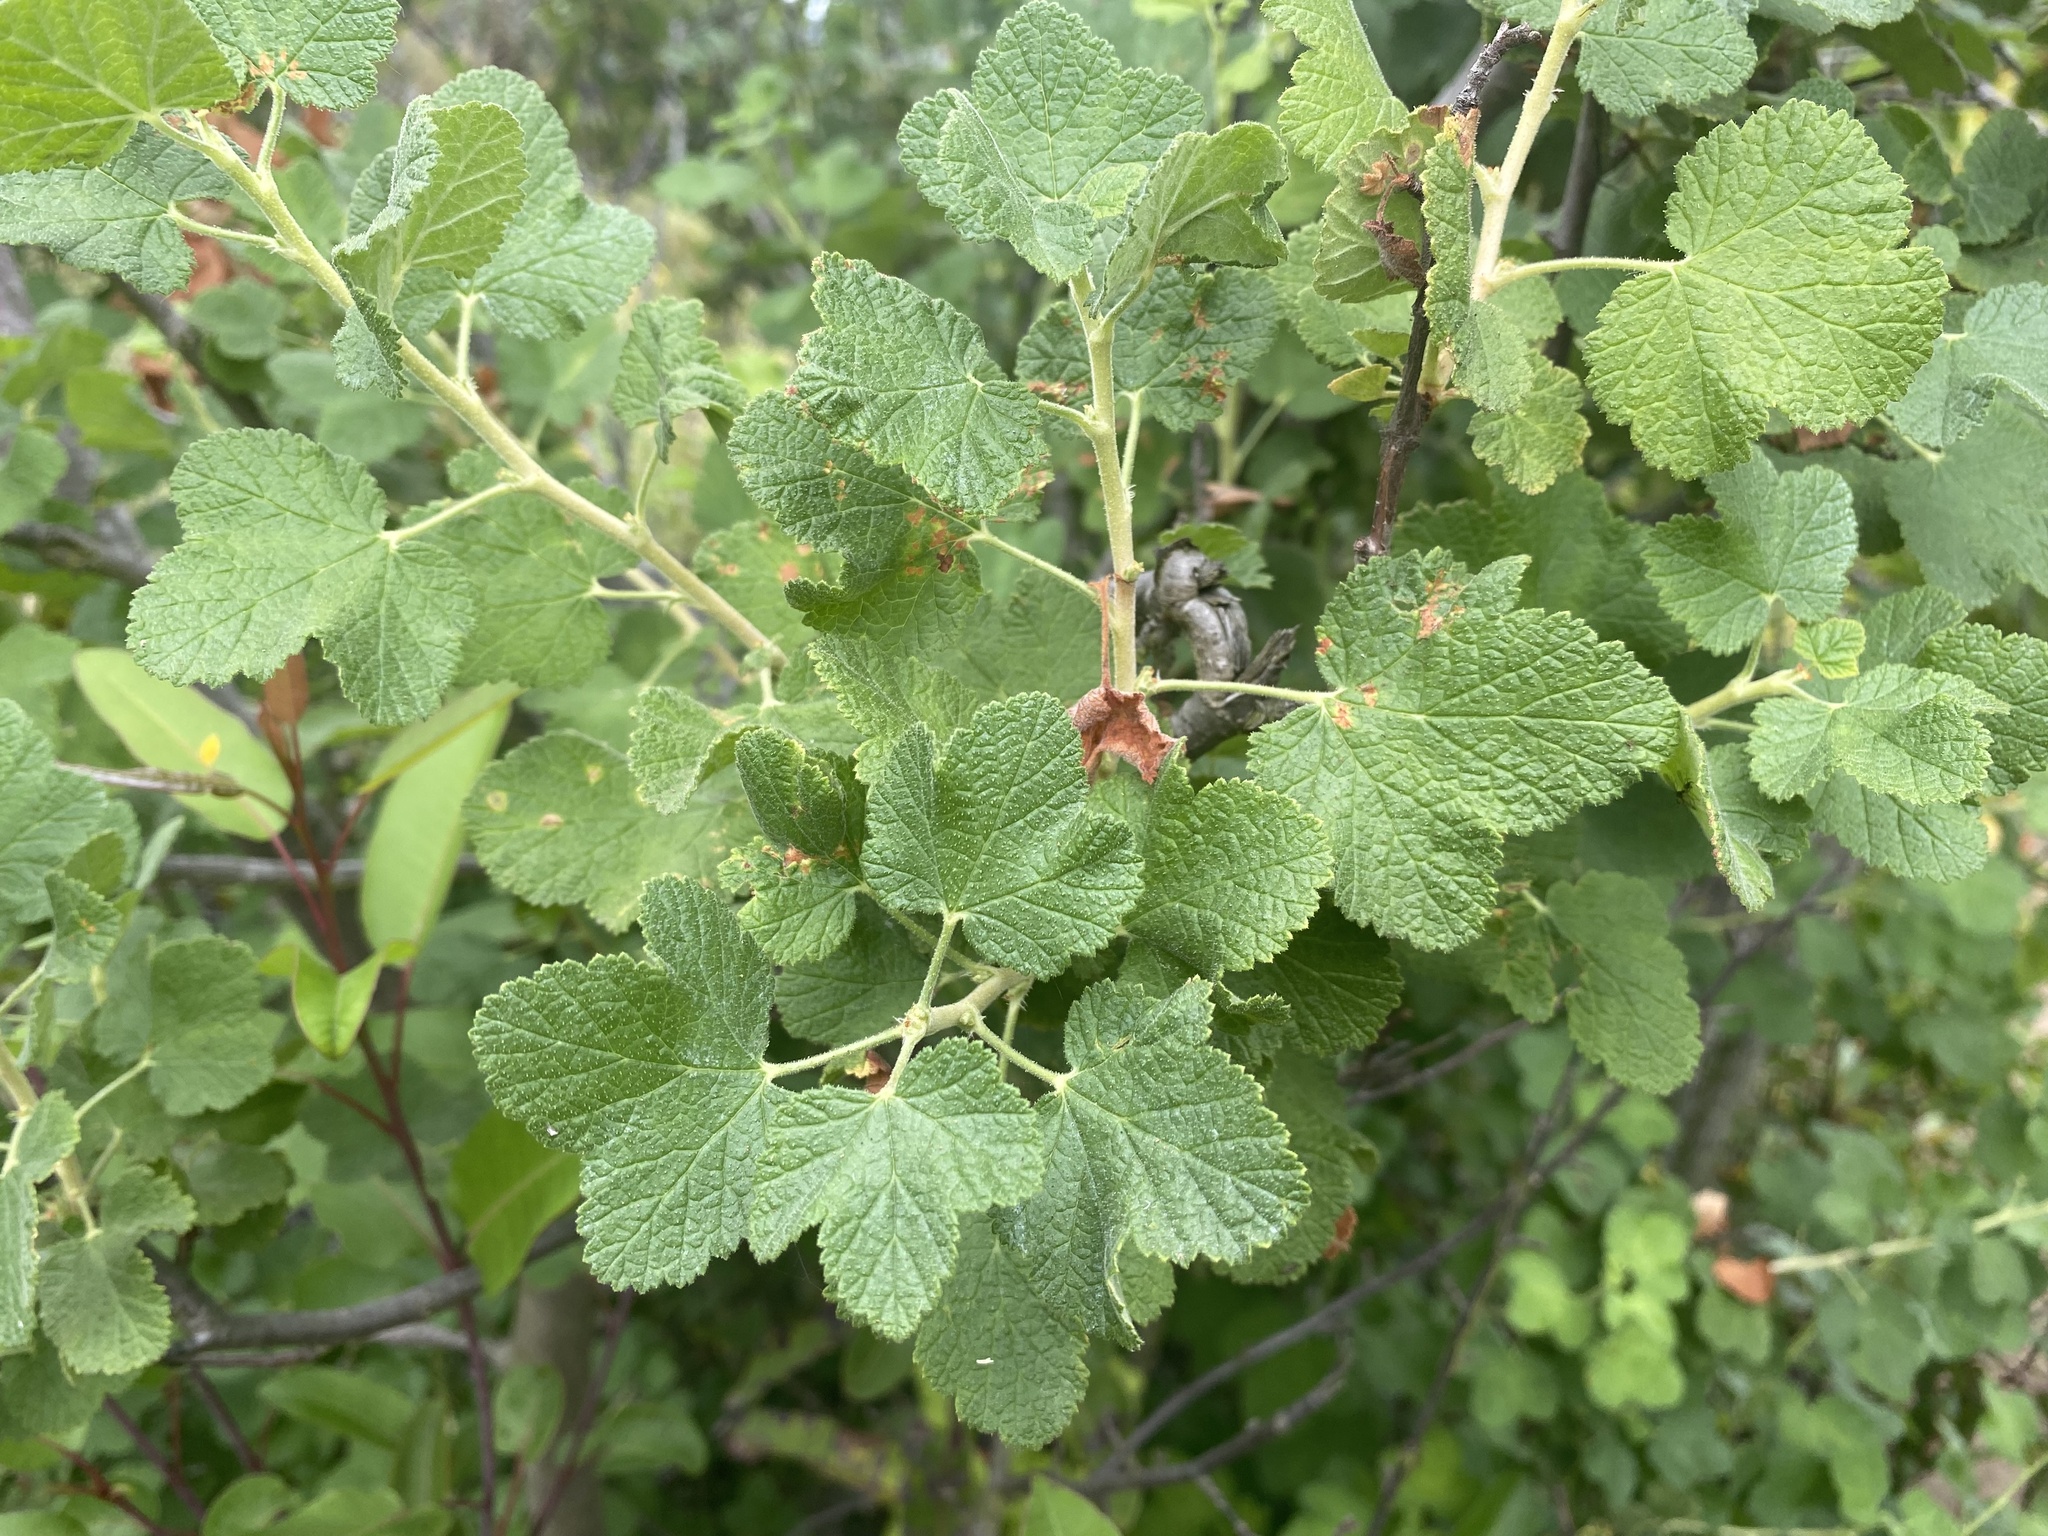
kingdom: Plantae
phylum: Tracheophyta
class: Magnoliopsida
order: Saxifragales
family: Grossulariaceae
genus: Ribes
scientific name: Ribes indecorum
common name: White-flower currant
